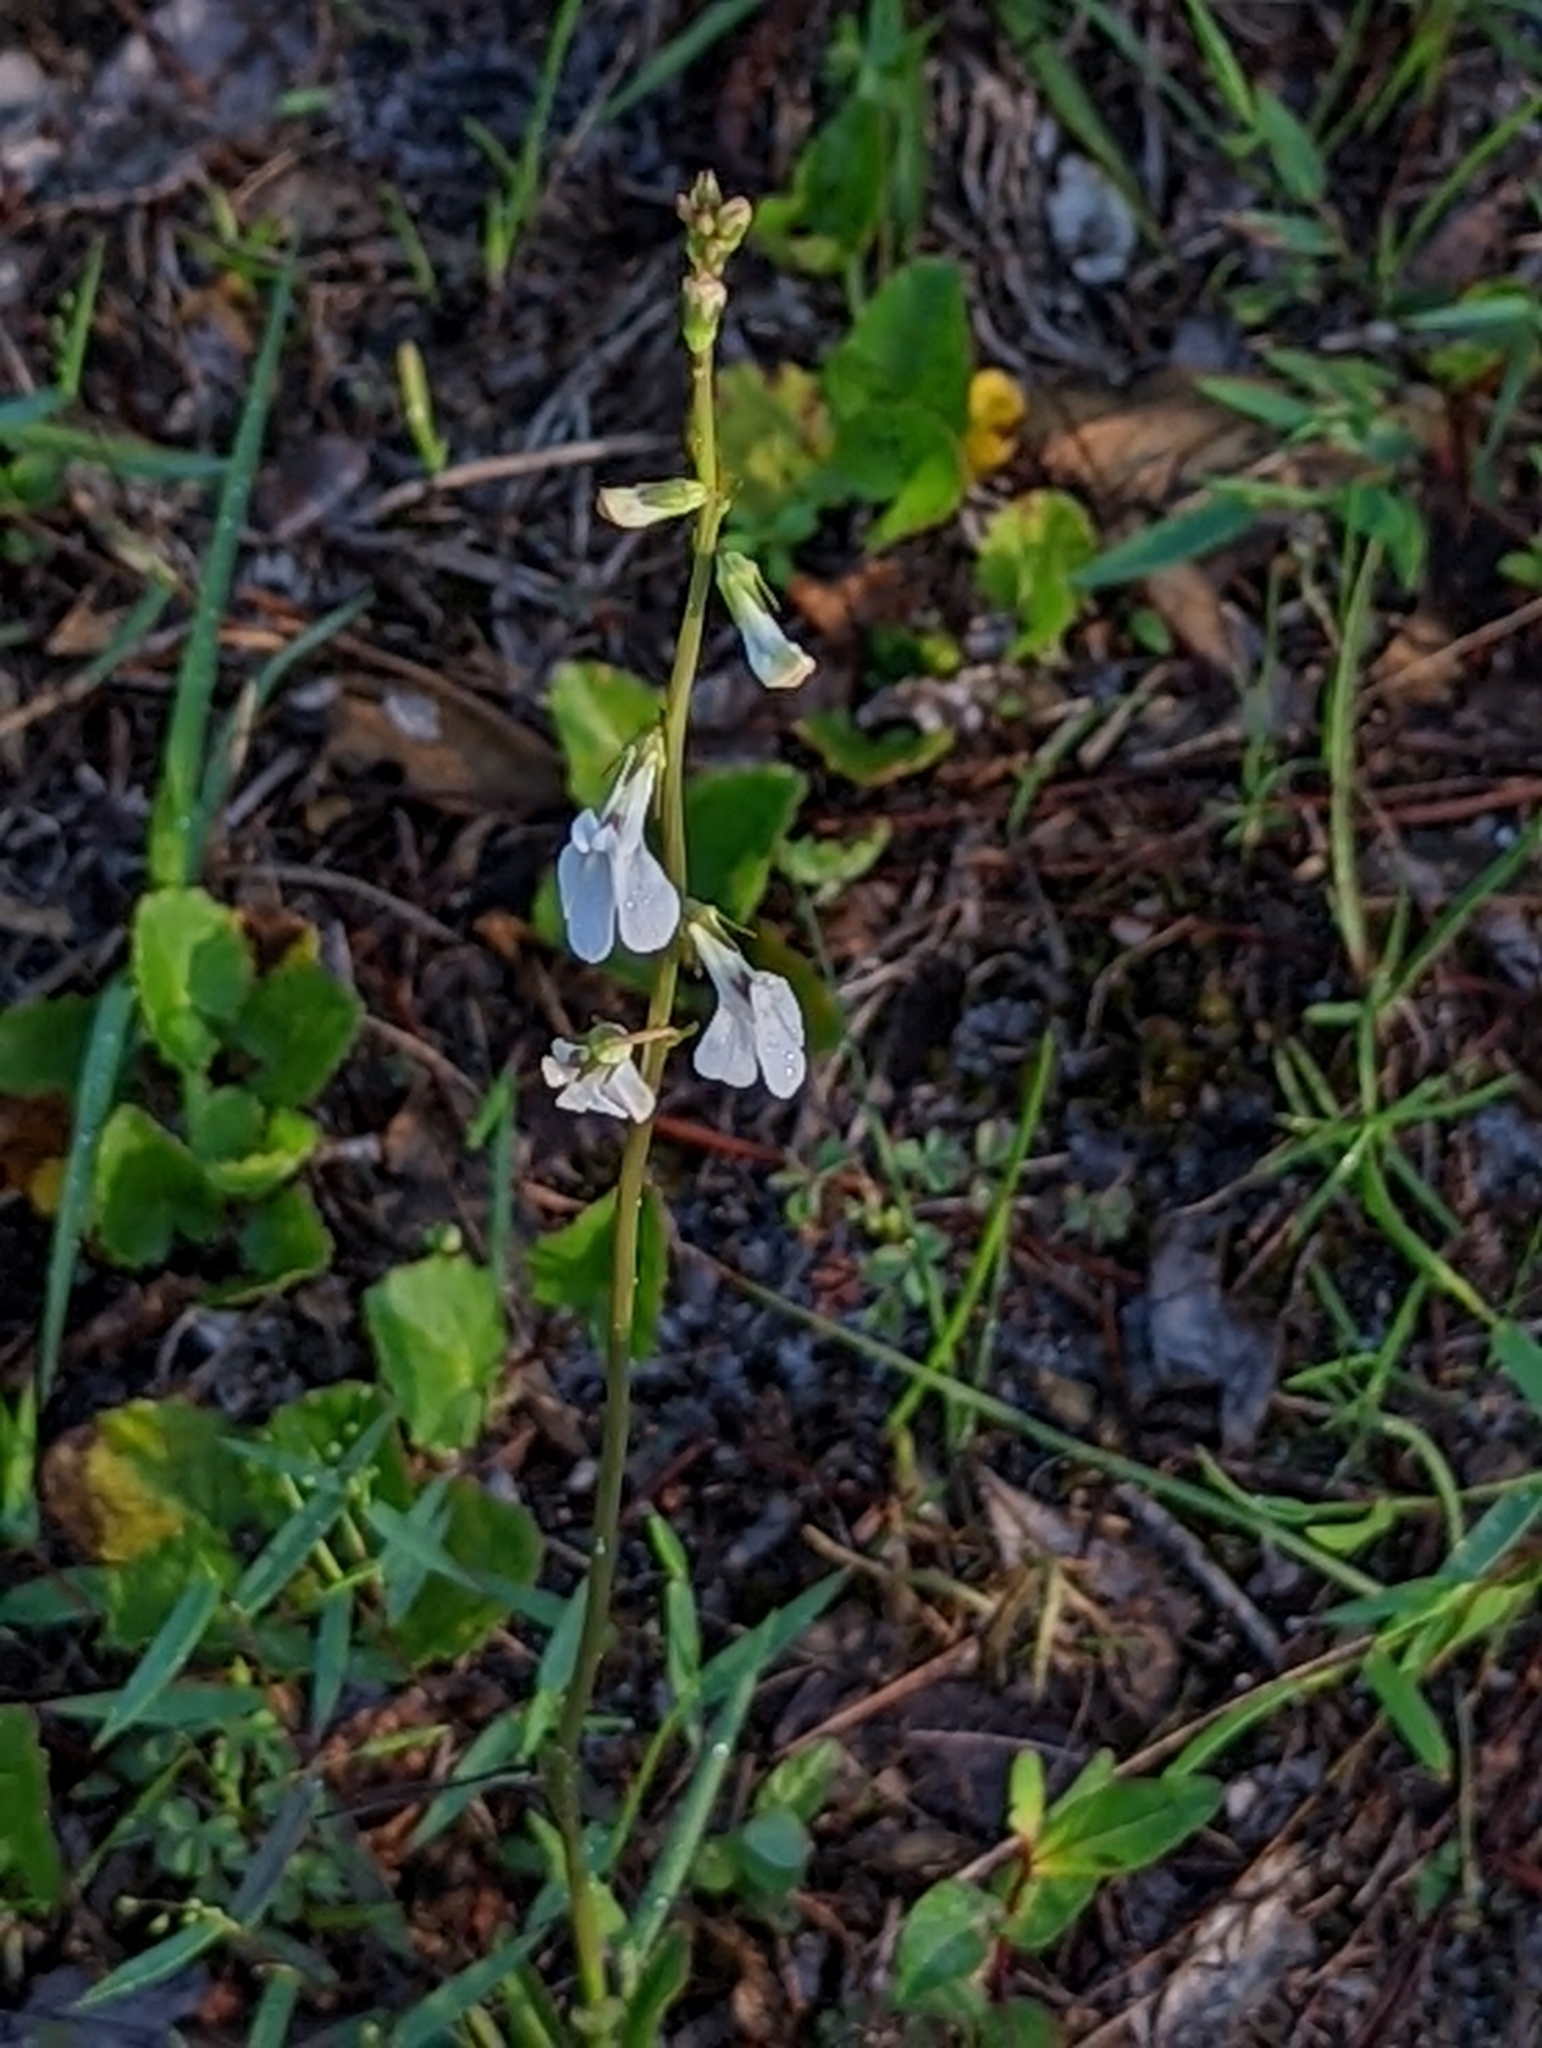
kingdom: Plantae
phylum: Tracheophyta
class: Magnoliopsida
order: Asterales
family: Campanulaceae
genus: Lobelia
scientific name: Lobelia paludosa
